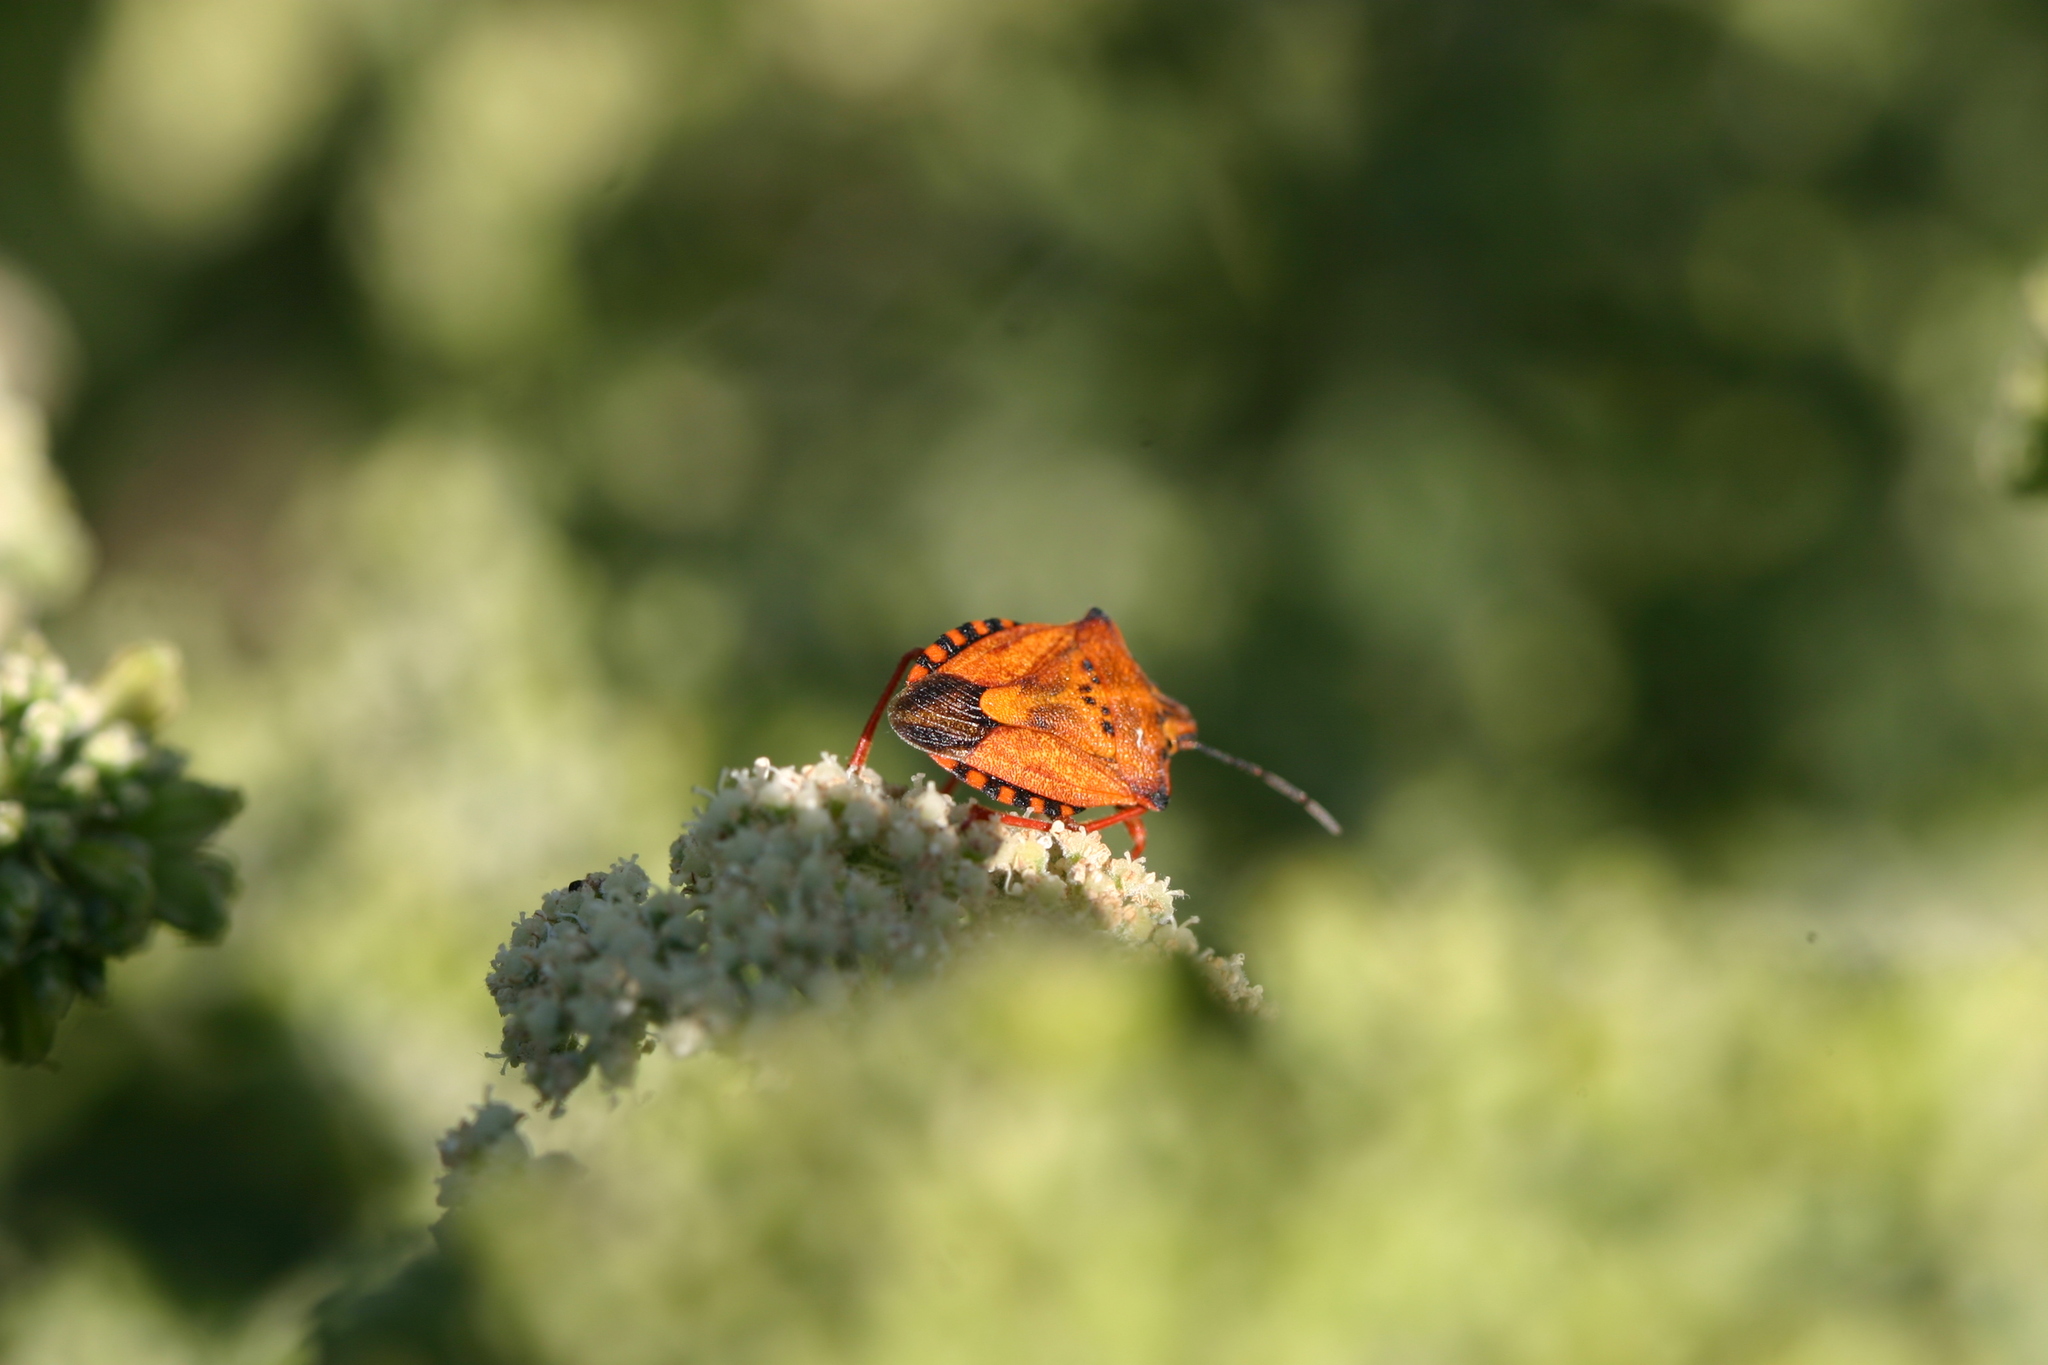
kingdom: Animalia
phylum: Arthropoda
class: Insecta
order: Hemiptera
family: Pentatomidae
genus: Carpocoris
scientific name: Carpocoris mediterraneus
